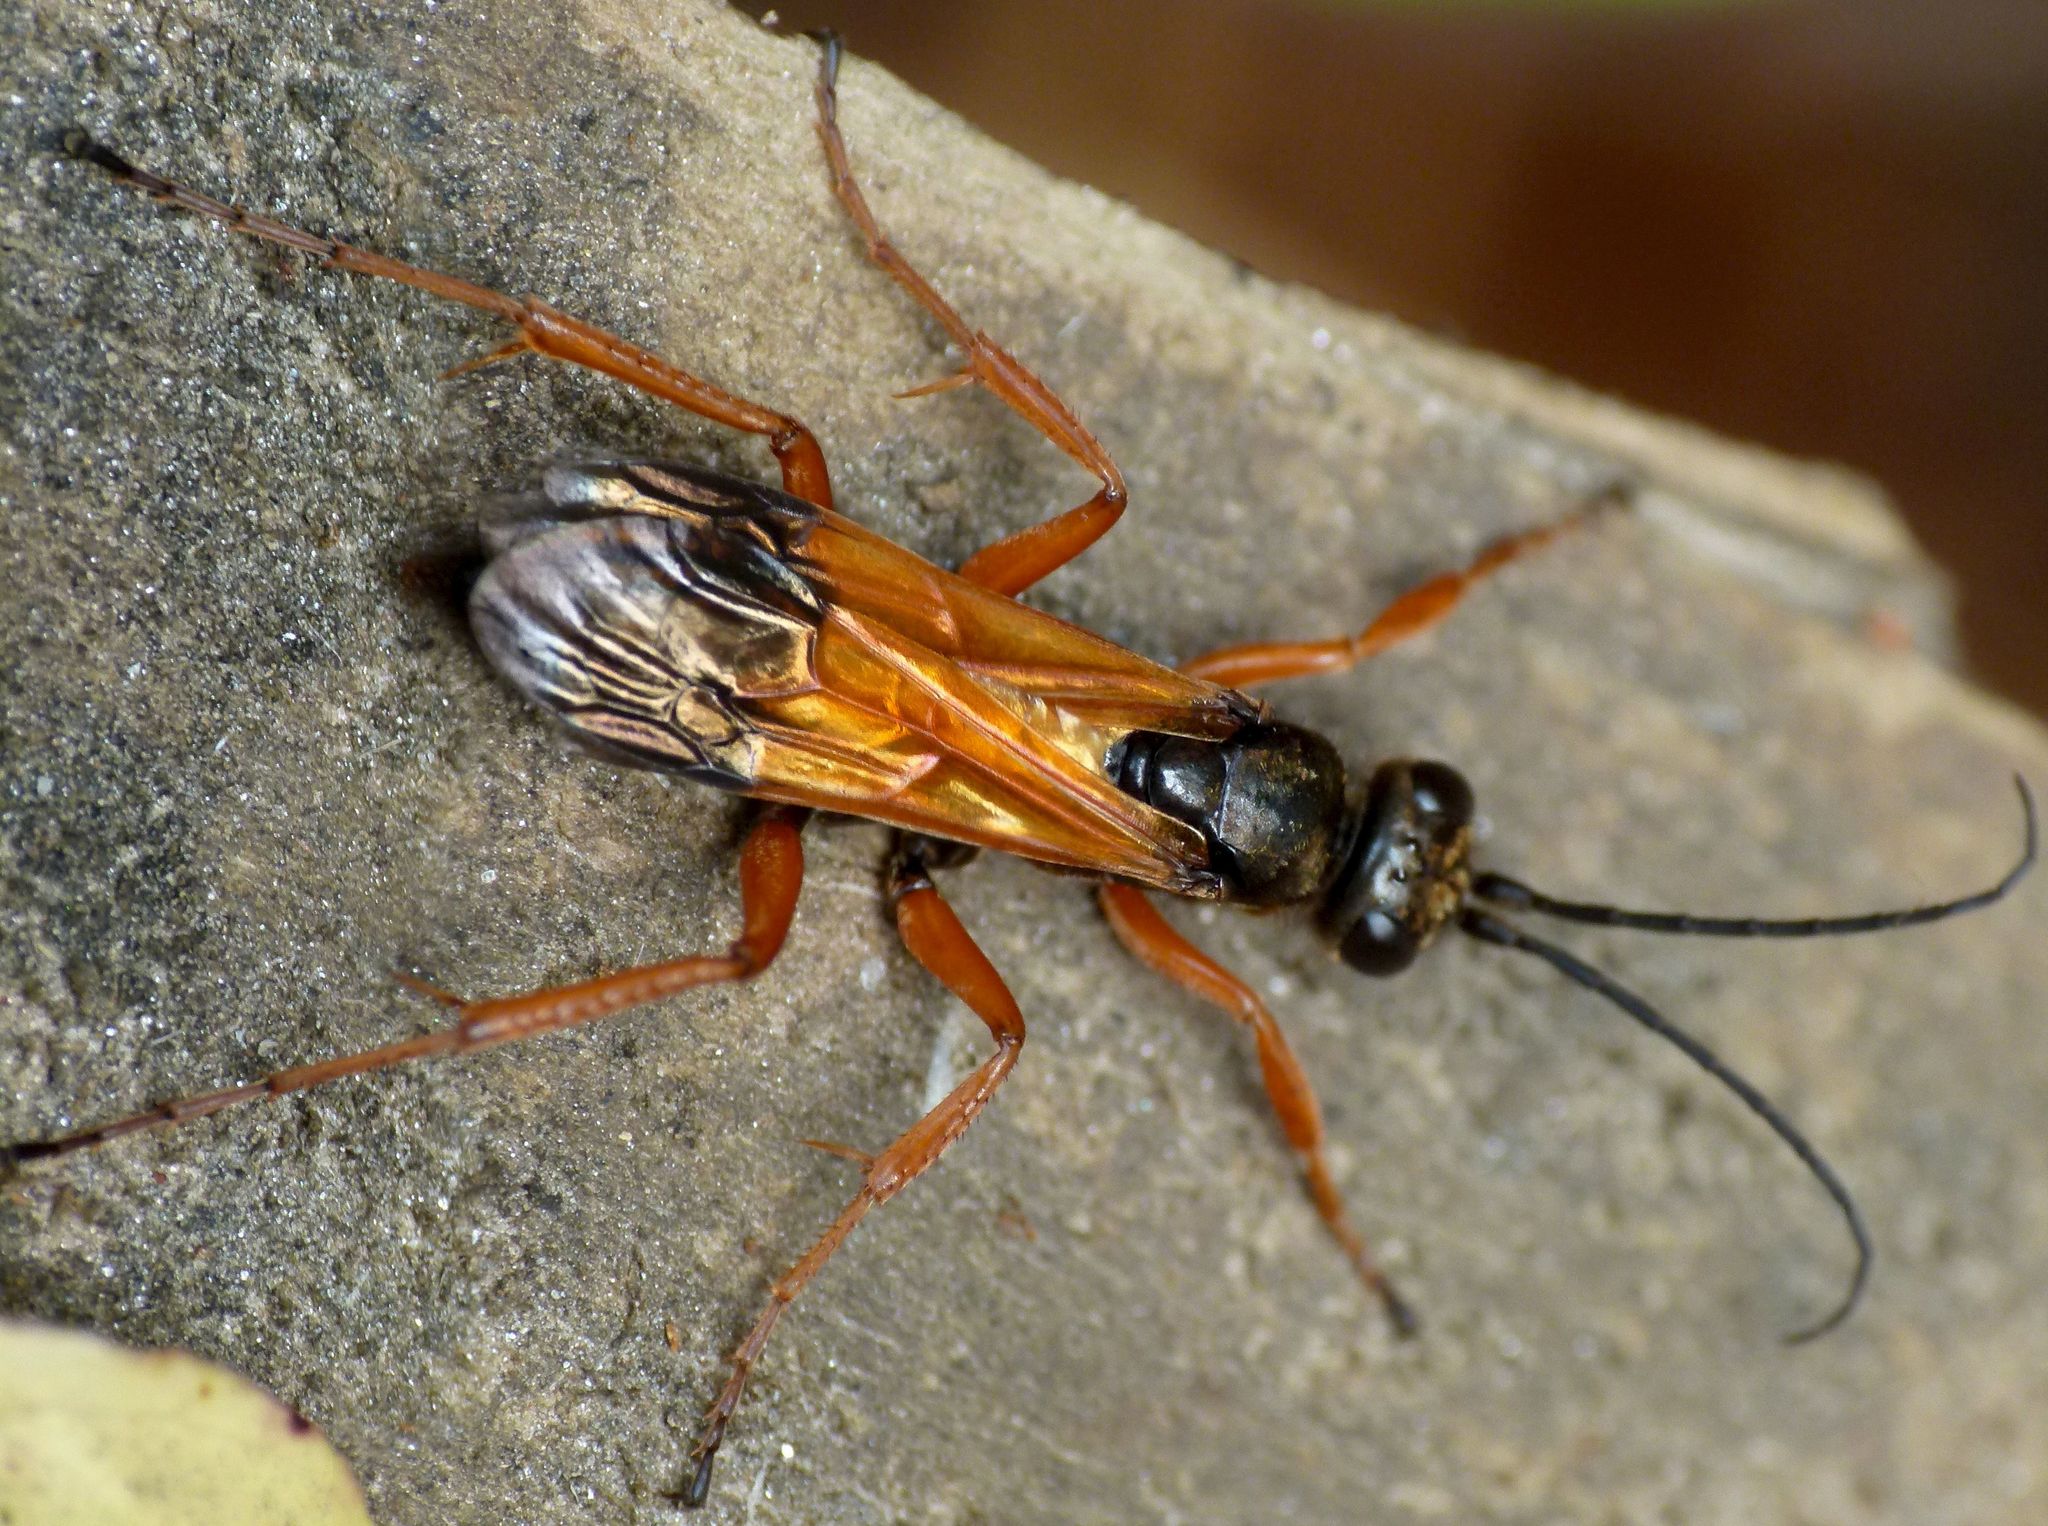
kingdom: Animalia
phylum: Arthropoda
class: Insecta
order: Hymenoptera
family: Pompilidae
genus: Priocnemis
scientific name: Priocnemis conformis
